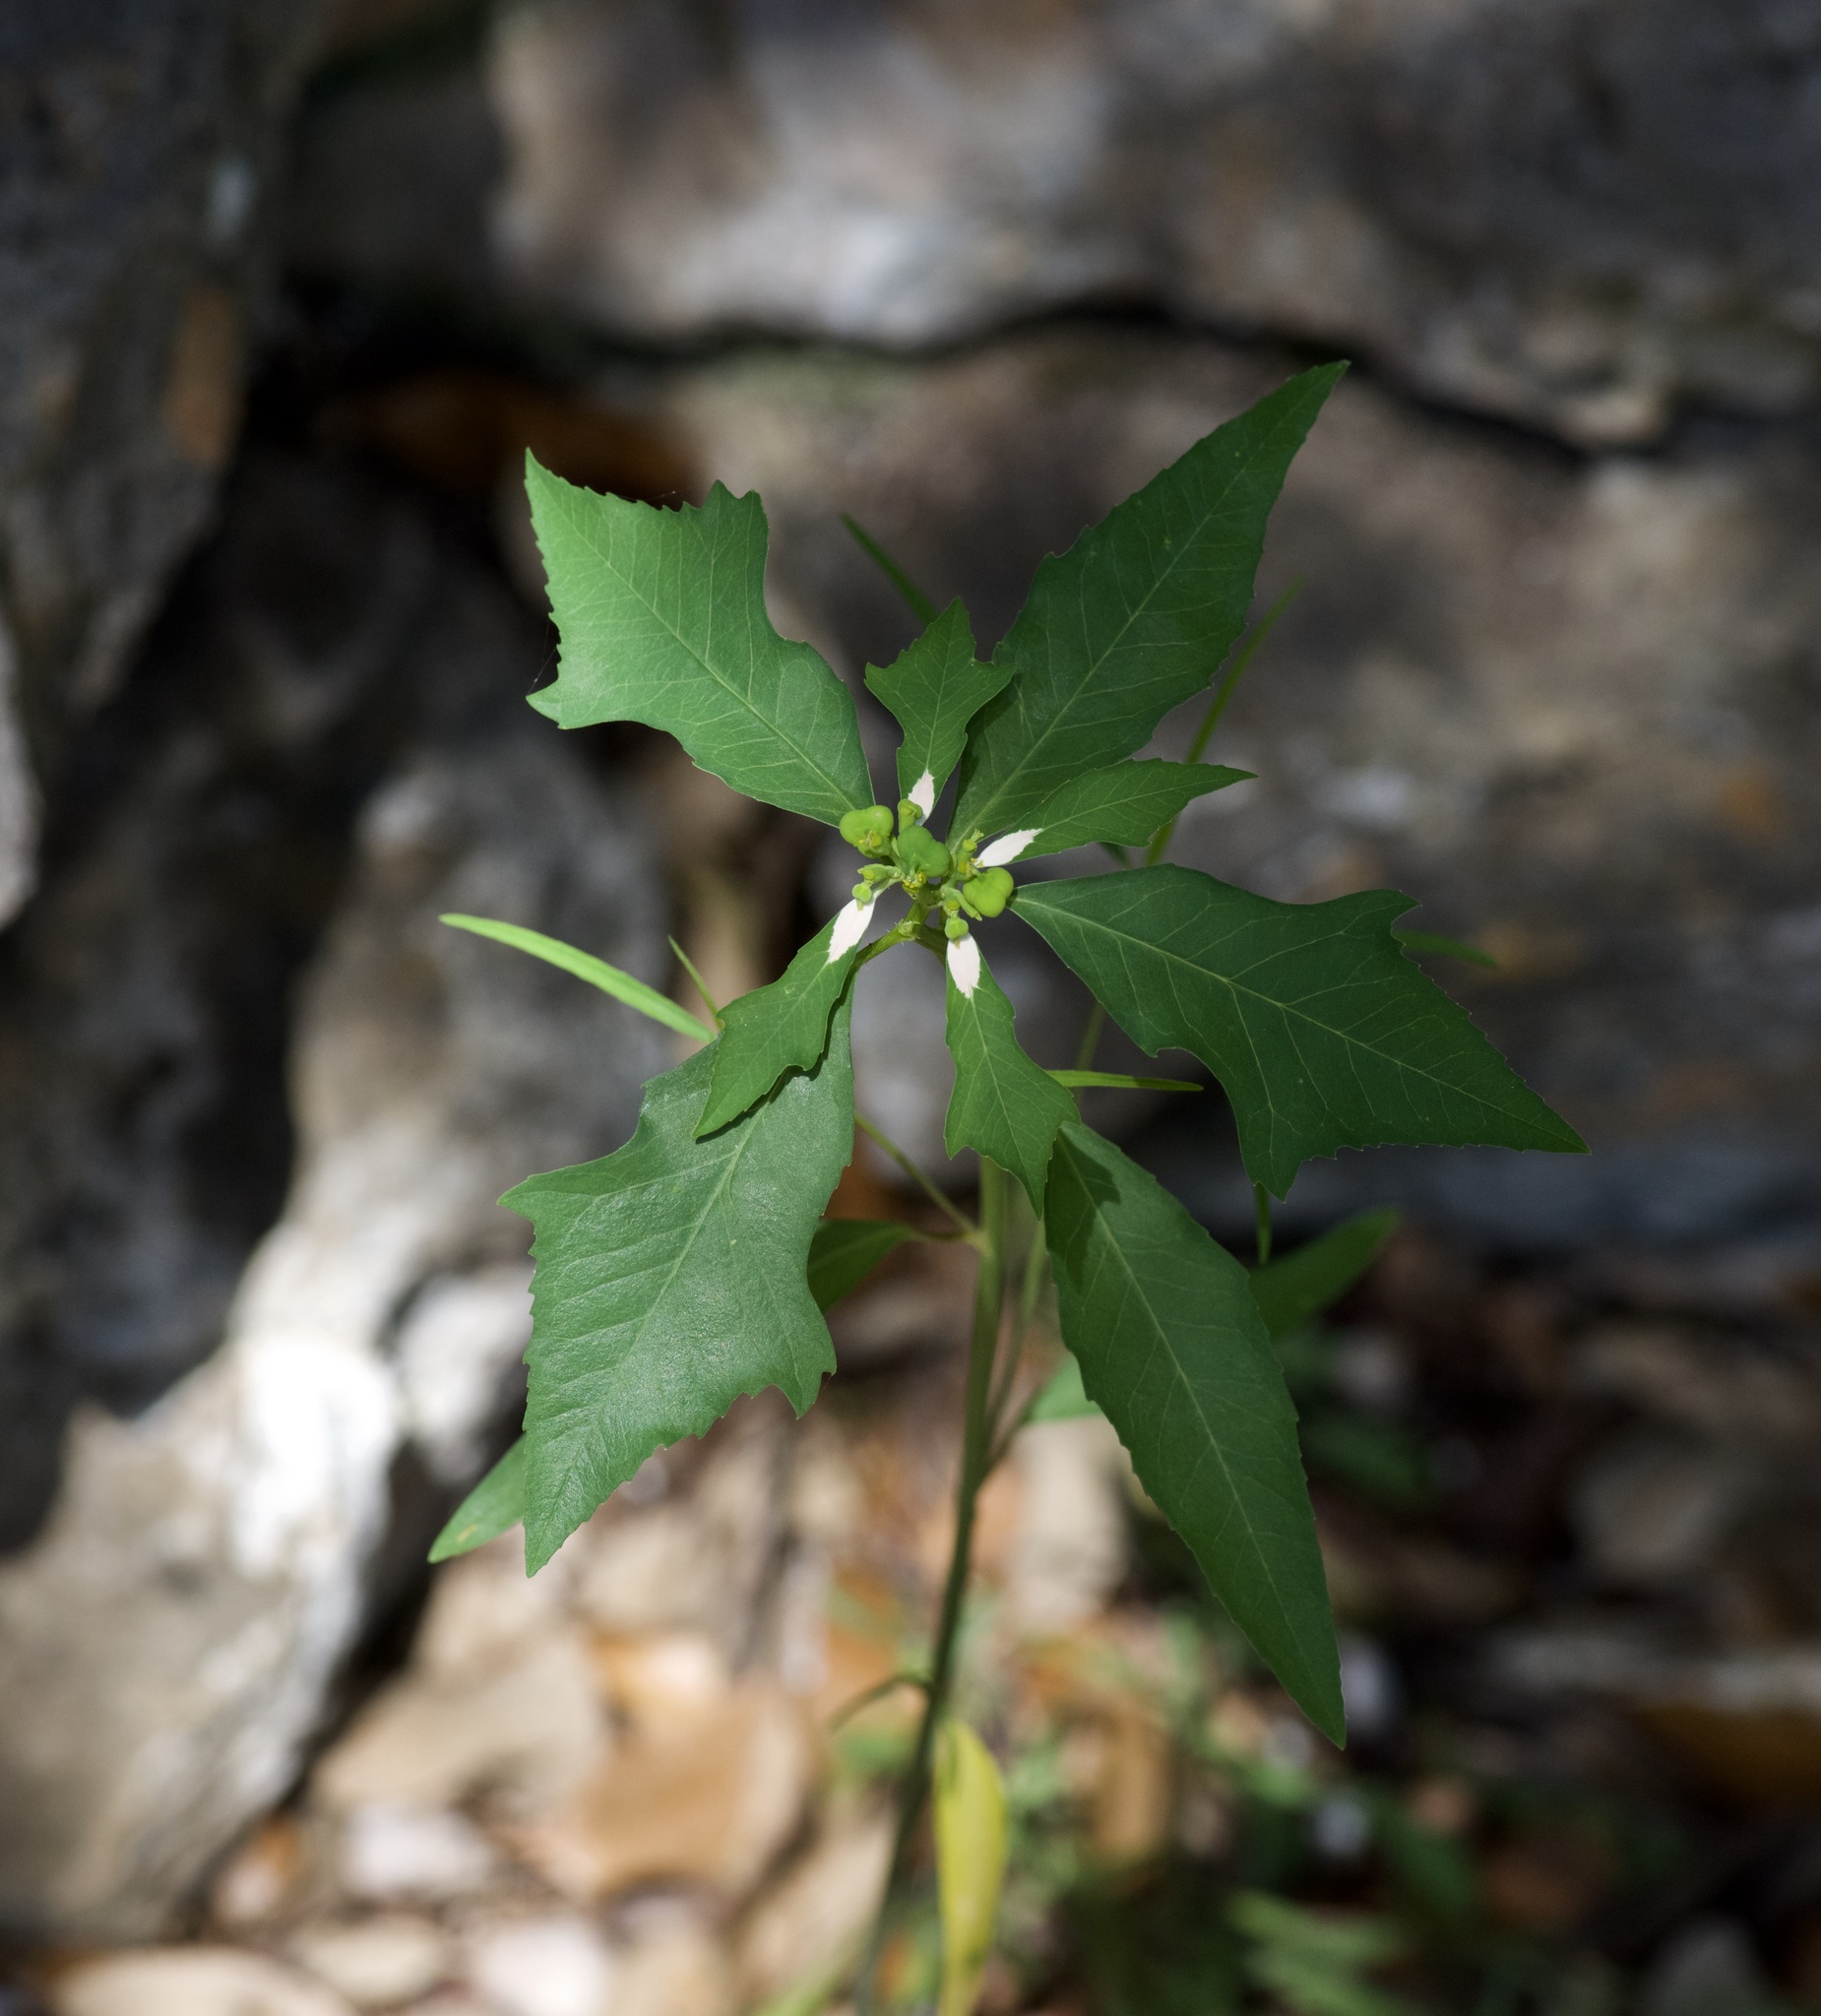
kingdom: Plantae
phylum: Tracheophyta
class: Magnoliopsida
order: Malpighiales
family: Euphorbiaceae
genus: Euphorbia
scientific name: Euphorbia heterophylla
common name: Mexican fireplant
